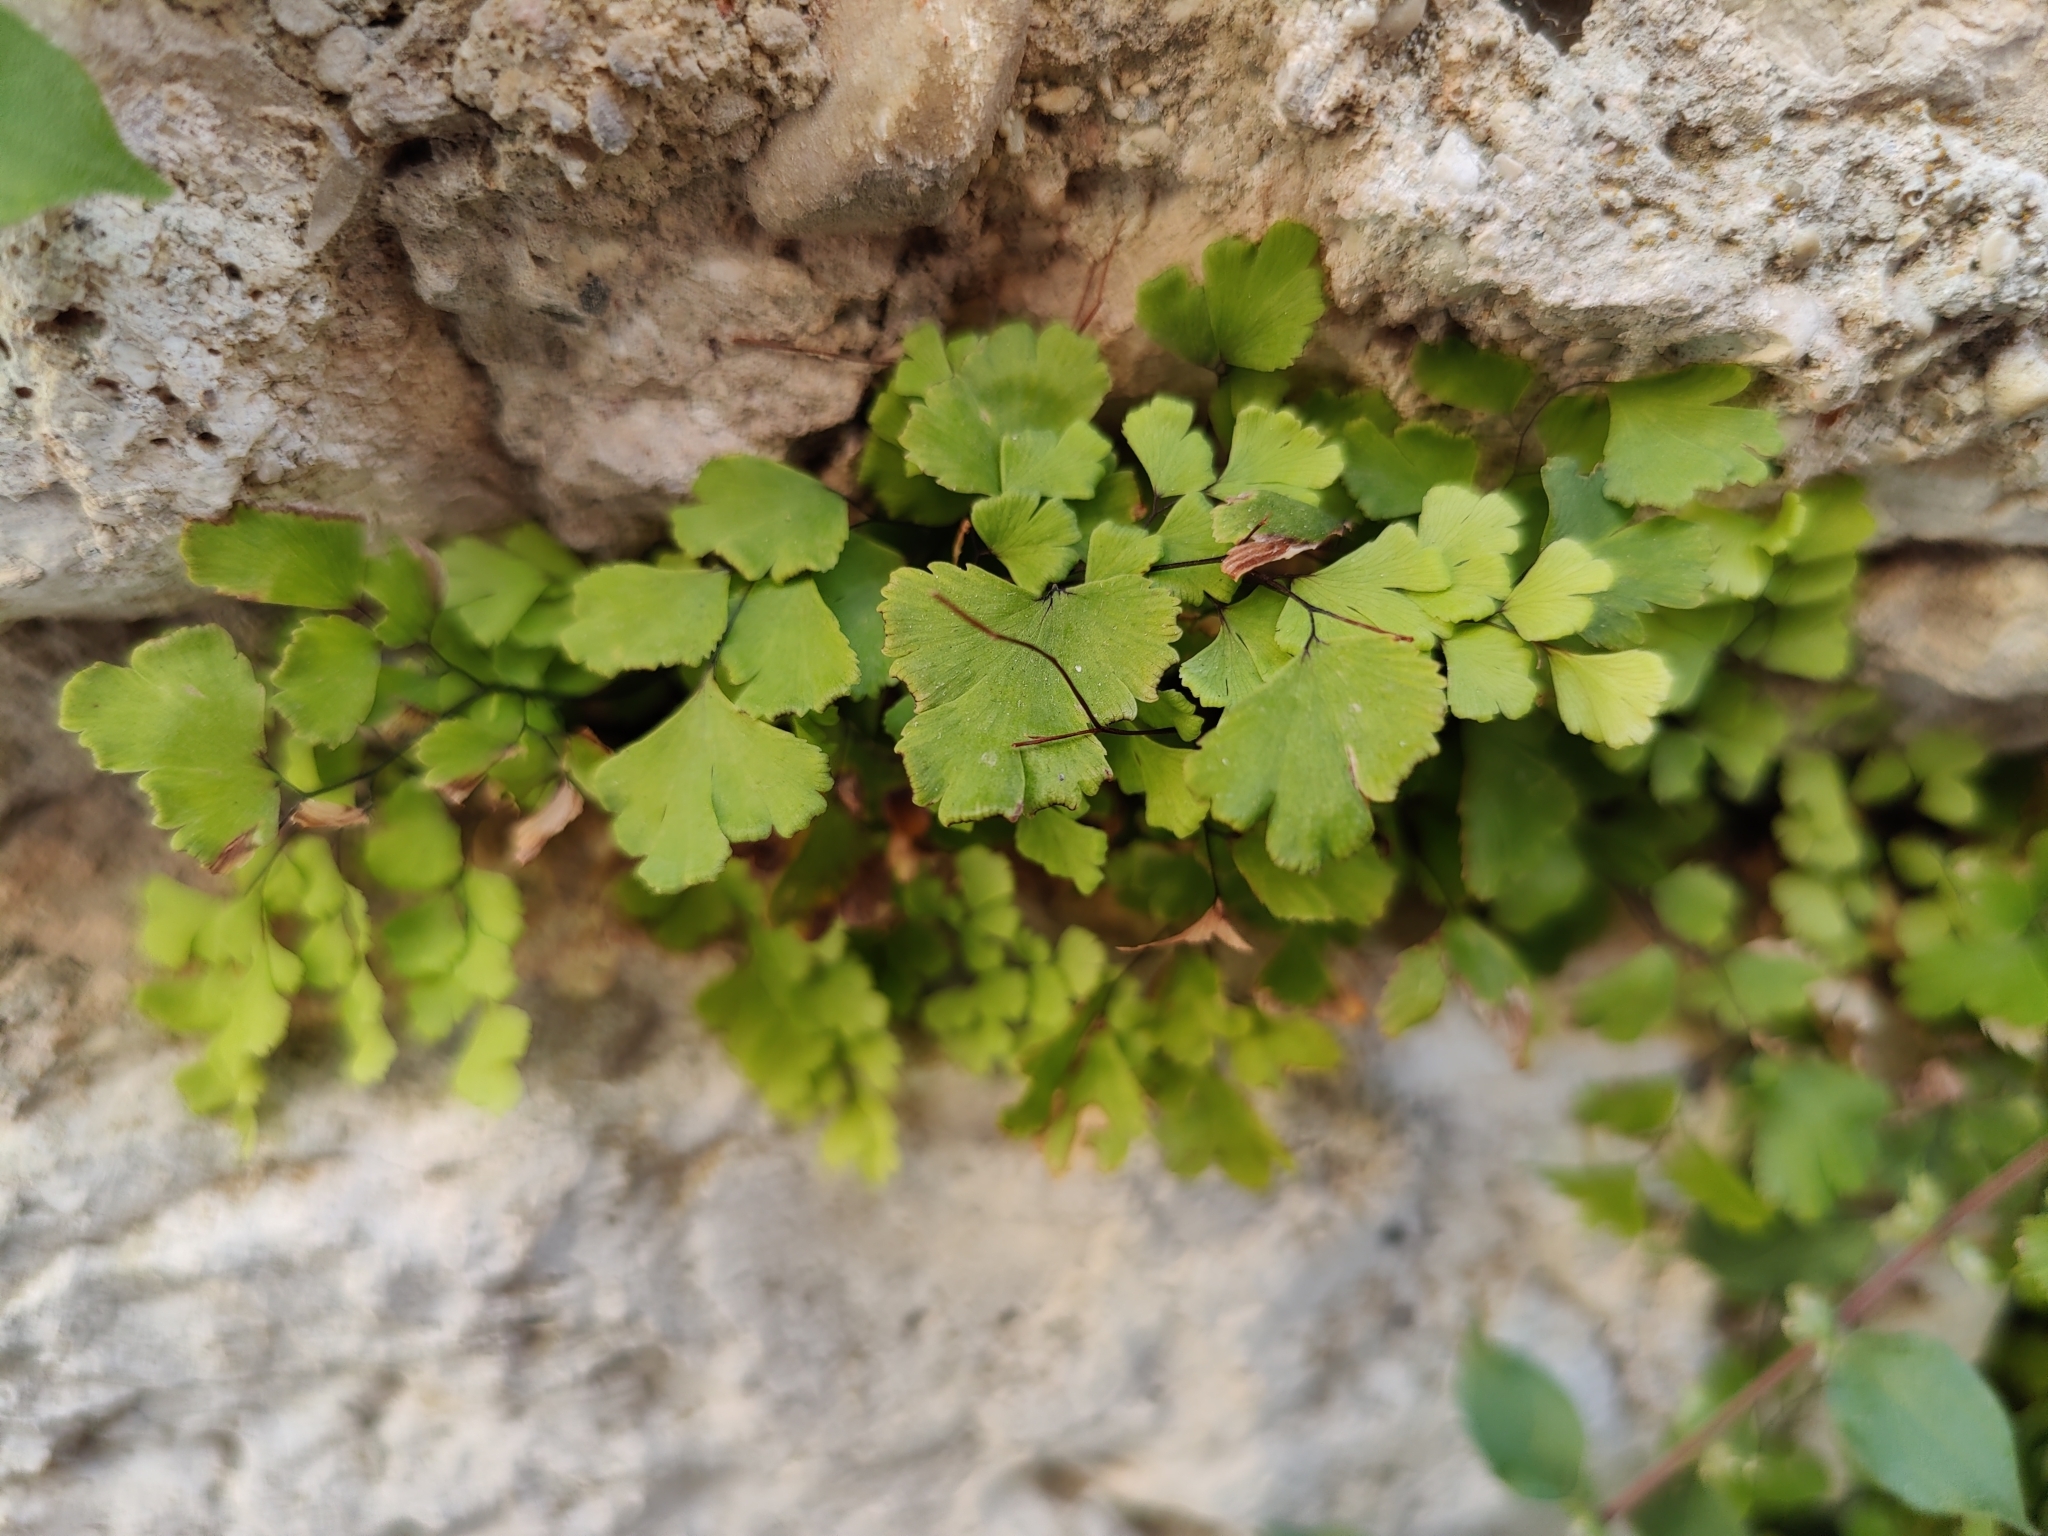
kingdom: Plantae
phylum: Tracheophyta
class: Polypodiopsida
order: Polypodiales
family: Pteridaceae
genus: Adiantum
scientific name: Adiantum capillus-veneris
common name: Maidenhair fern
